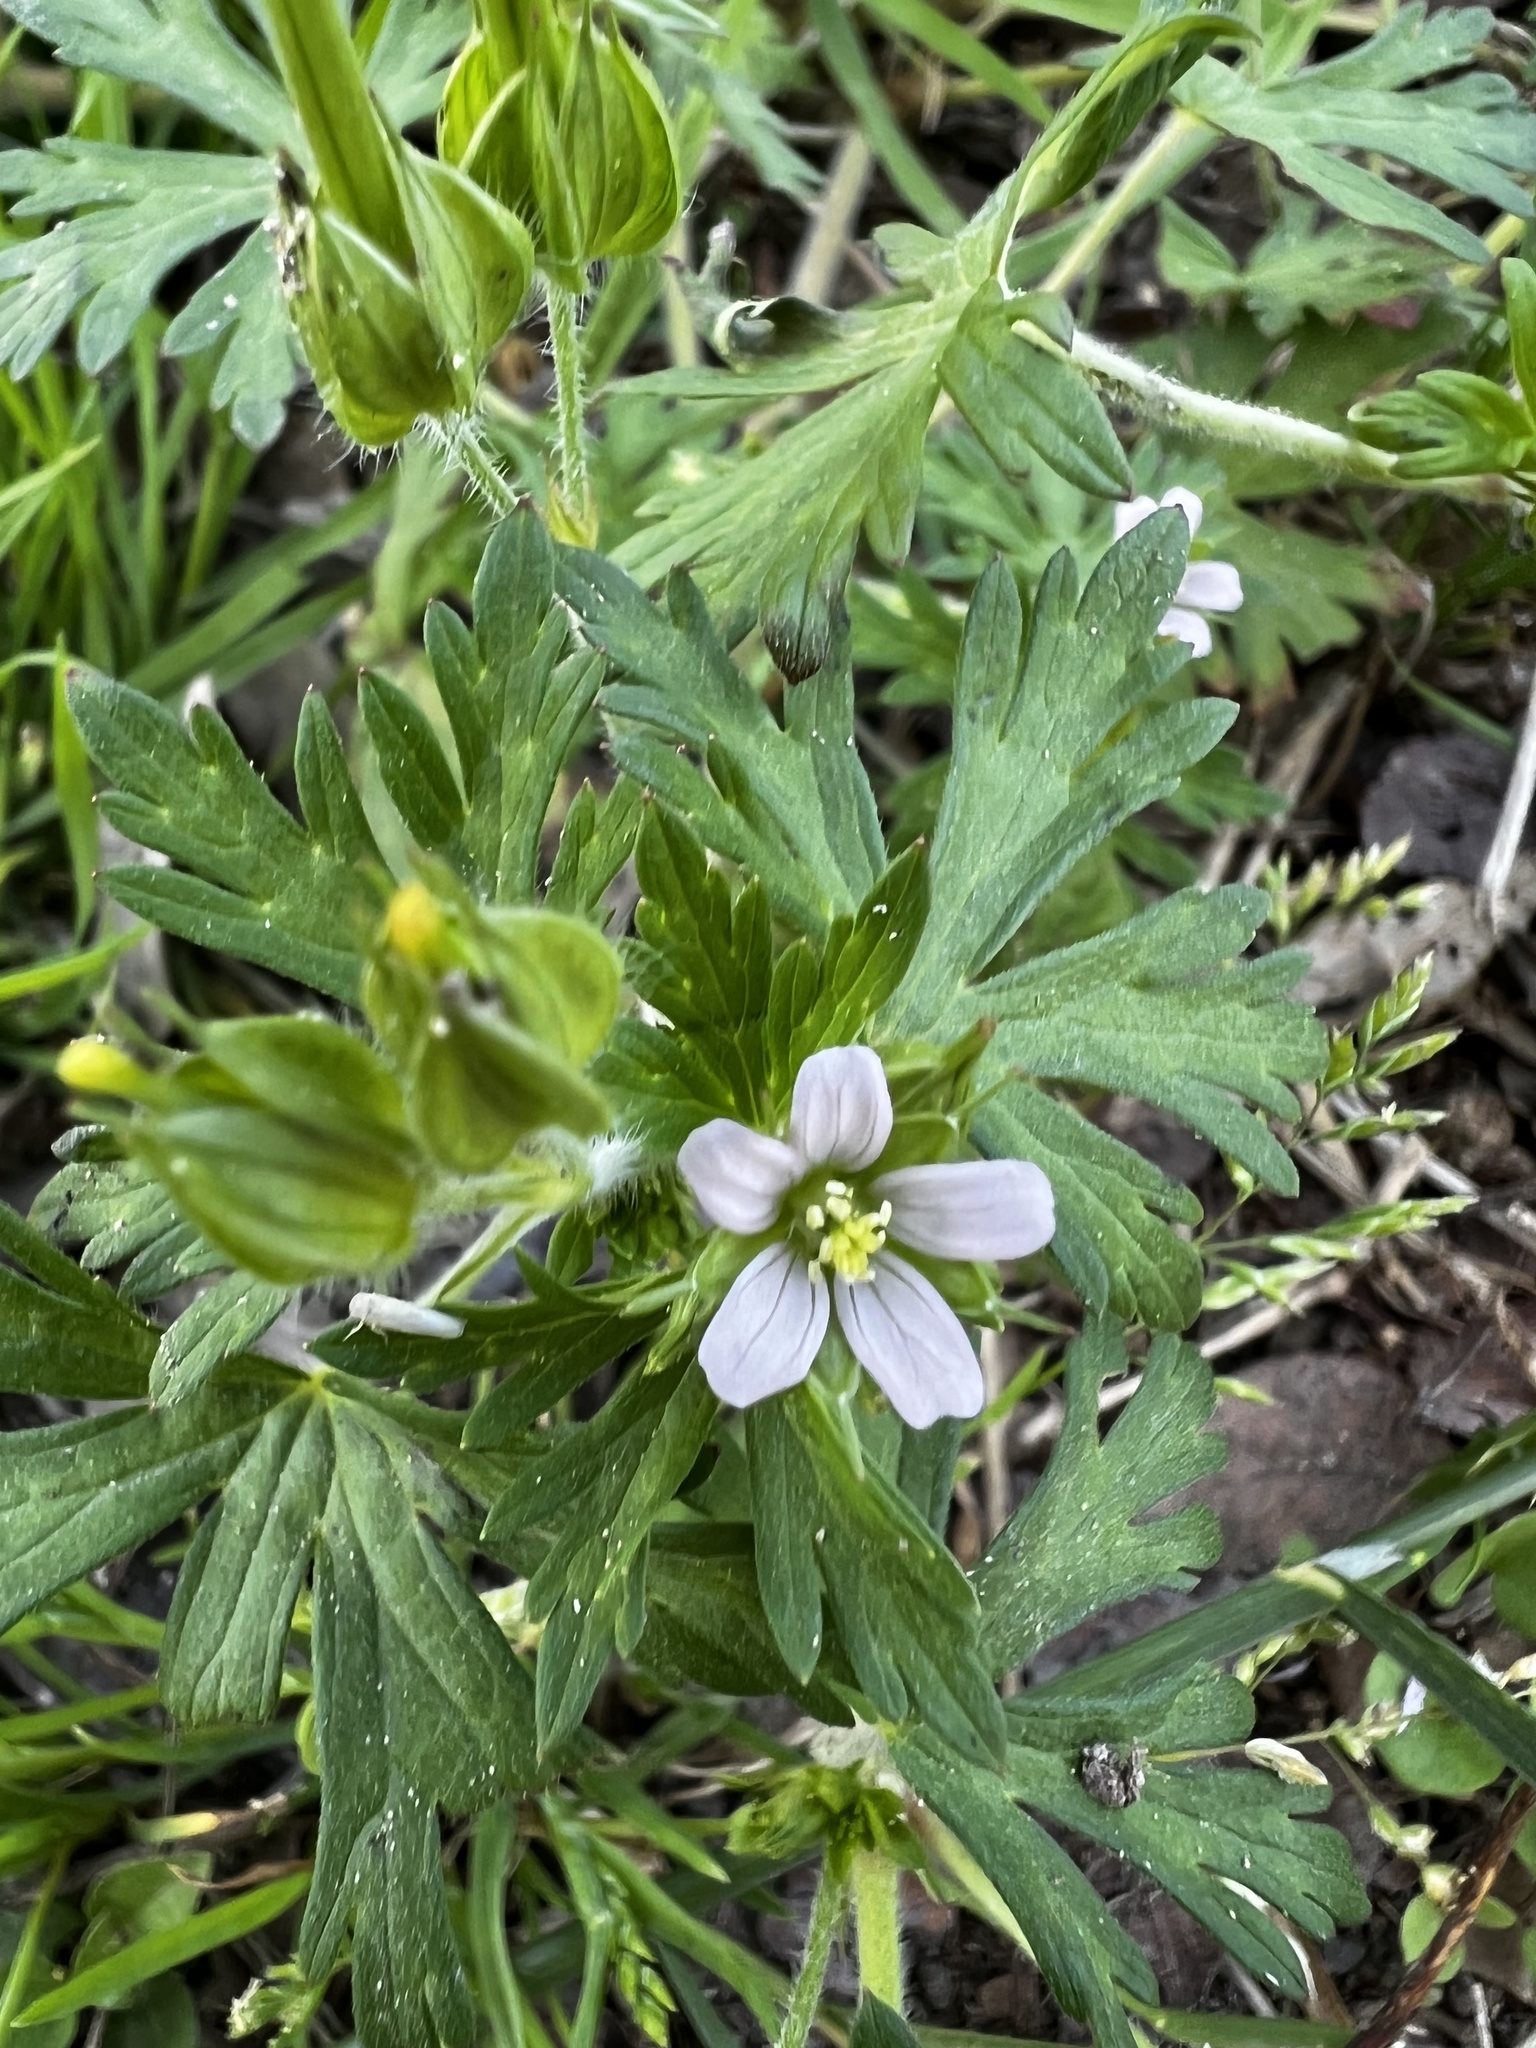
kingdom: Plantae
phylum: Tracheophyta
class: Magnoliopsida
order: Geraniales
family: Geraniaceae
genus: Geranium
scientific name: Geranium carolinianum
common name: Carolina crane's-bill
